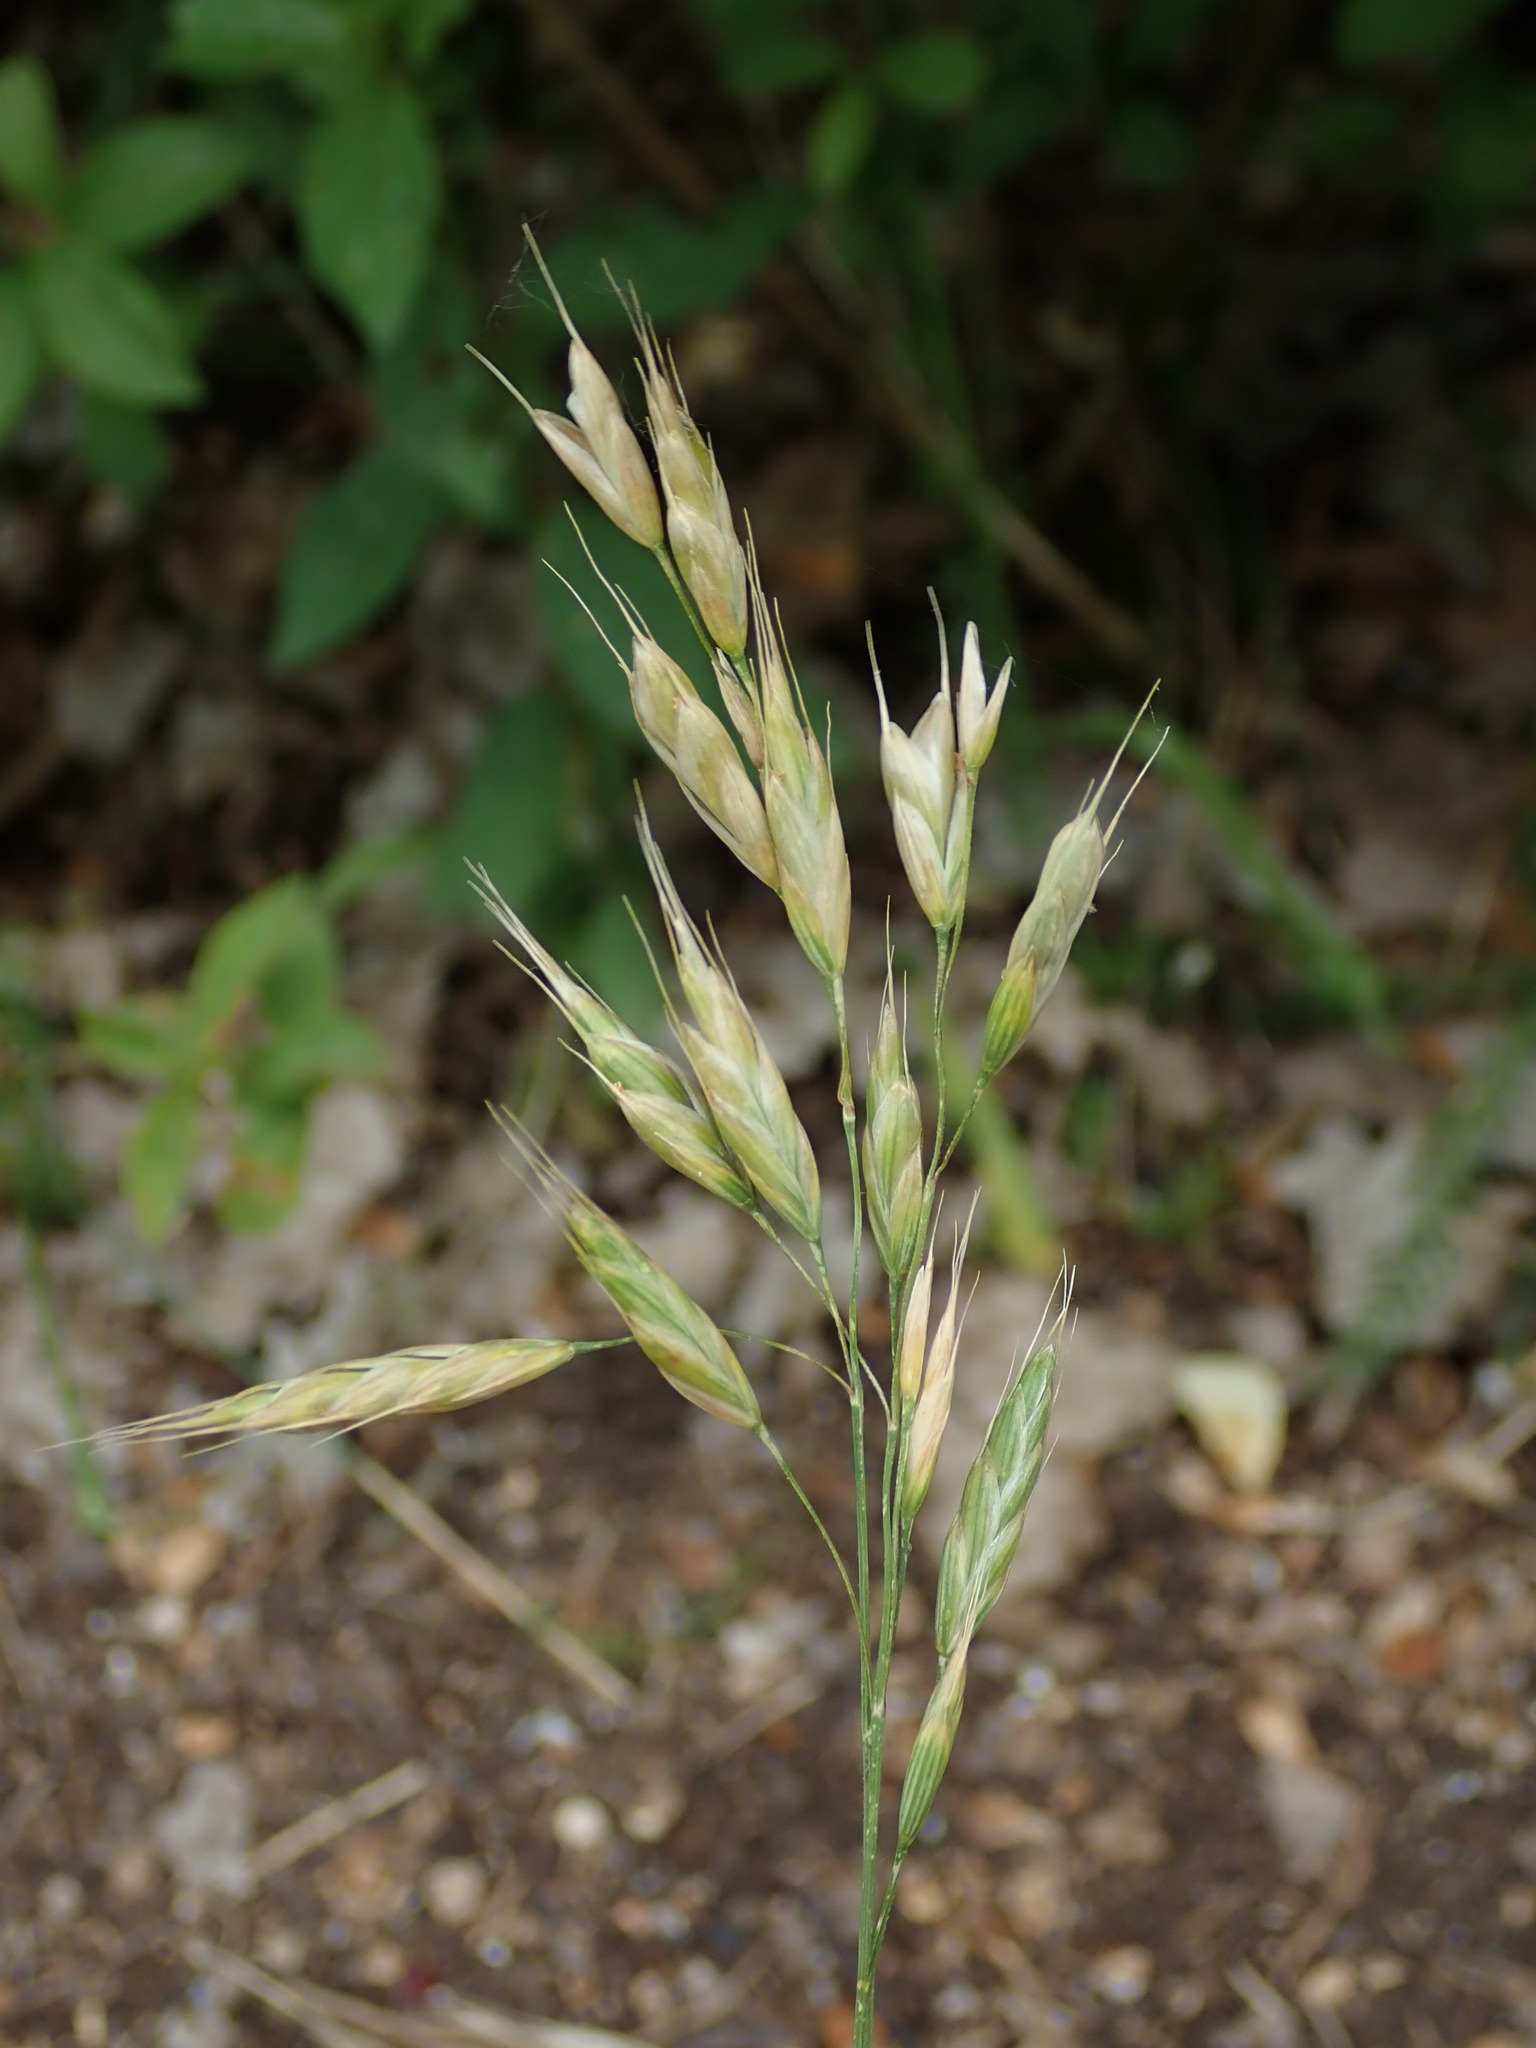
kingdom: Plantae
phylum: Tracheophyta
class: Liliopsida
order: Poales
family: Poaceae
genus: Bromus
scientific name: Bromus hordeaceus
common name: Soft brome
